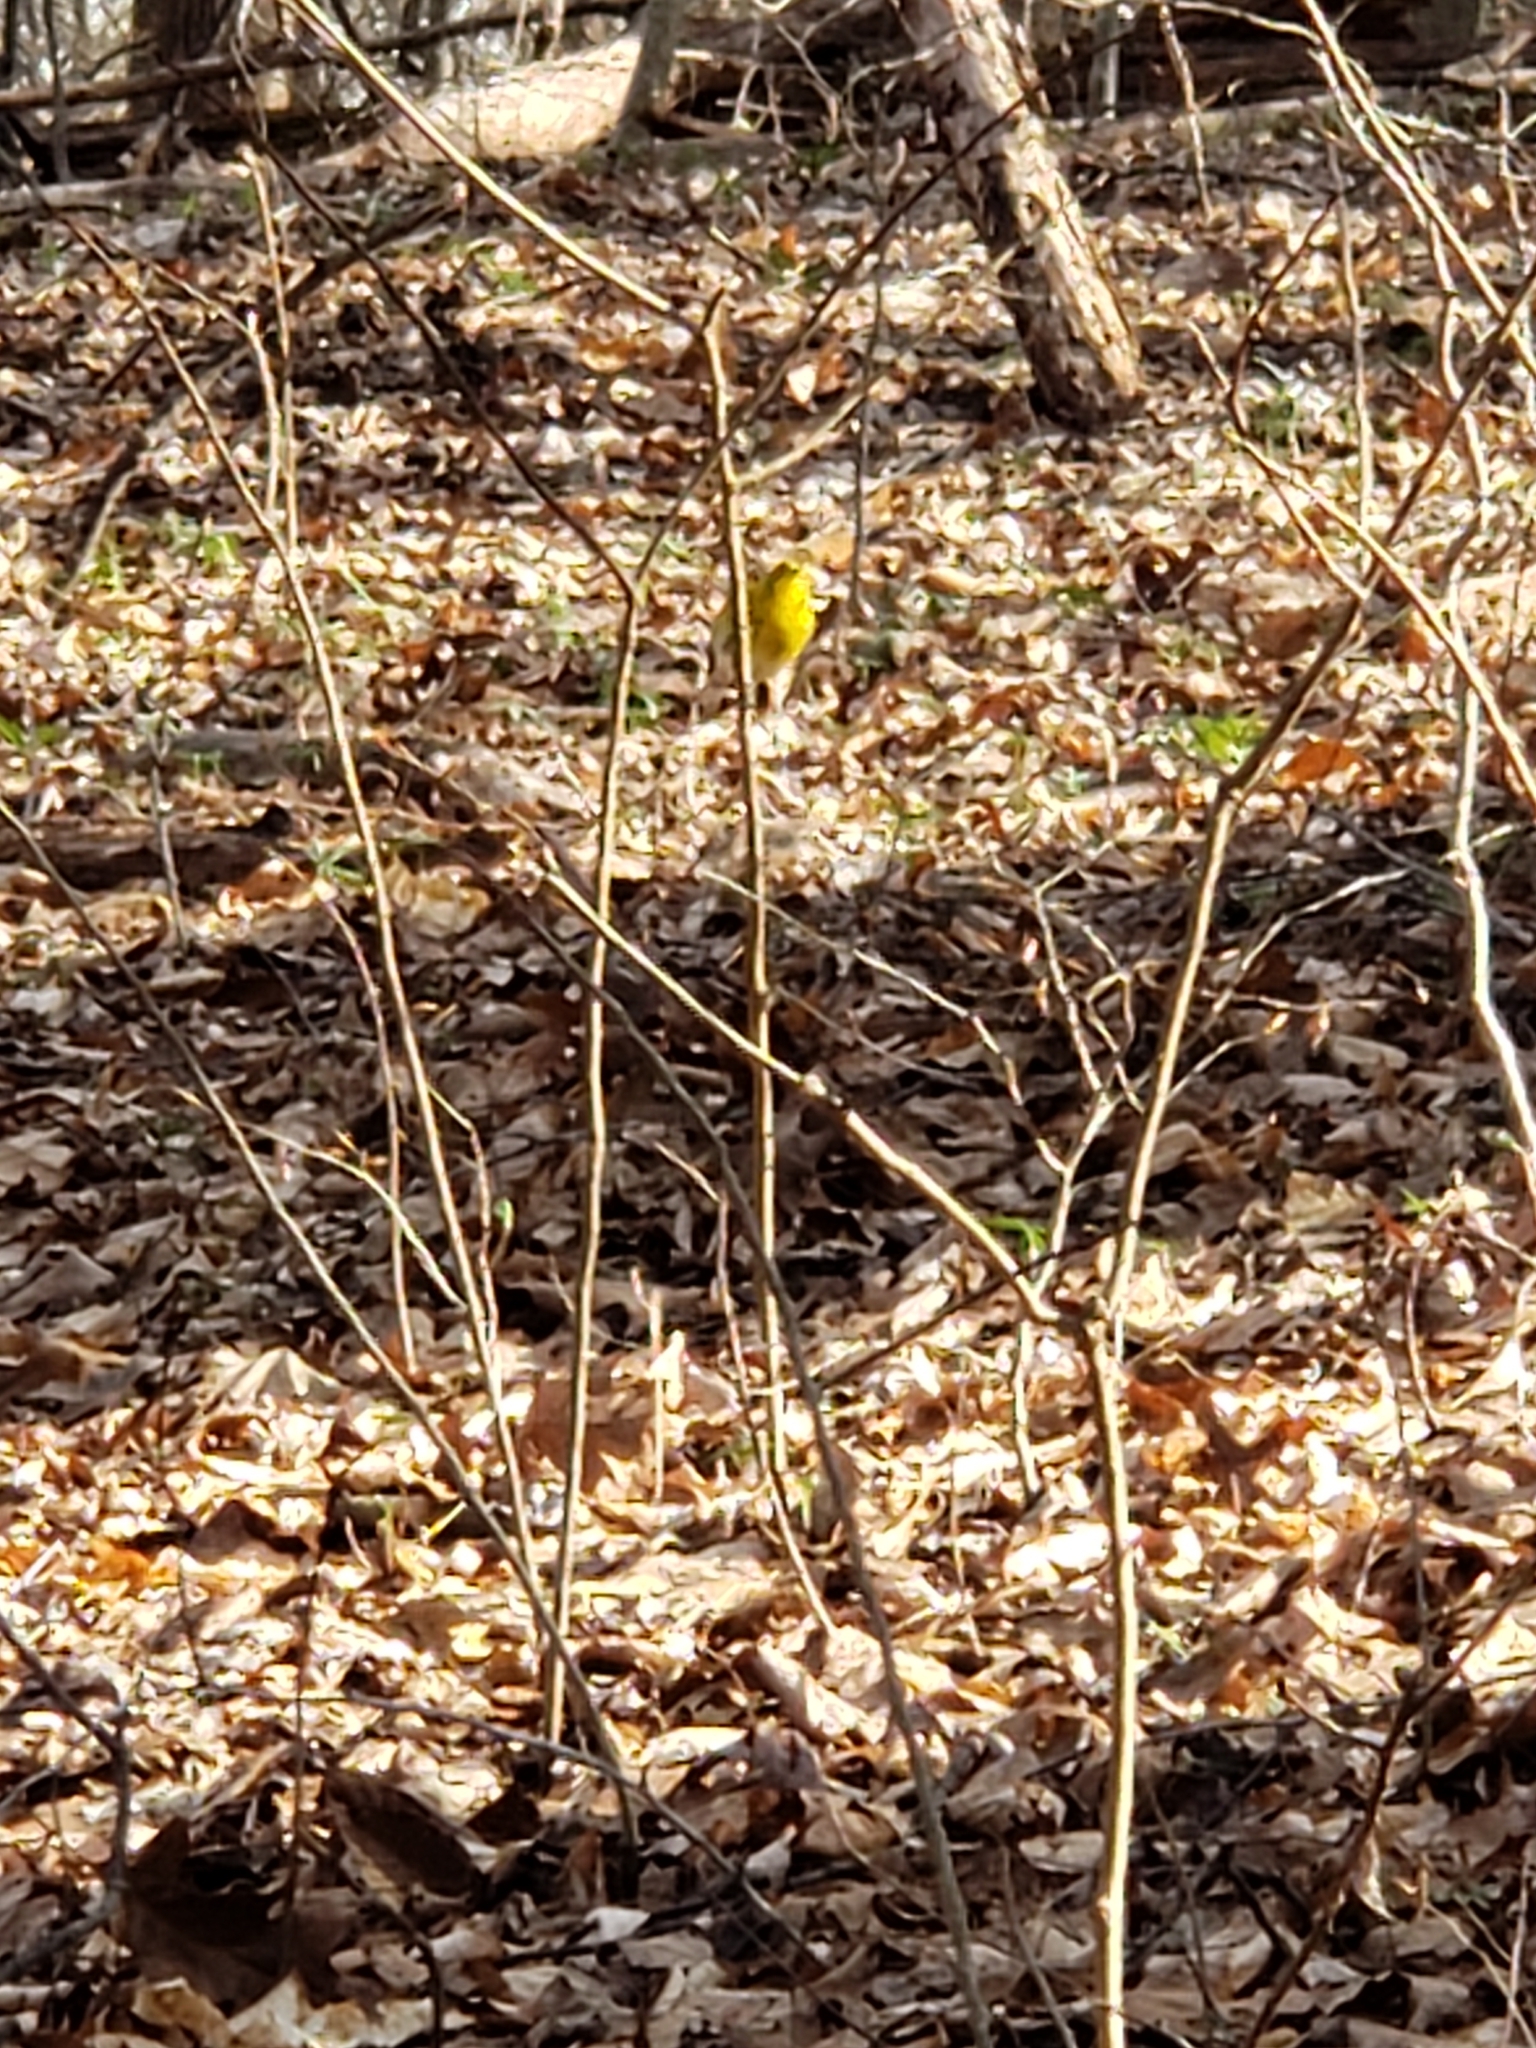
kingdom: Animalia
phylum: Chordata
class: Aves
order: Passeriformes
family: Parulidae
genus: Setophaga
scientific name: Setophaga pinus
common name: Pine warbler
